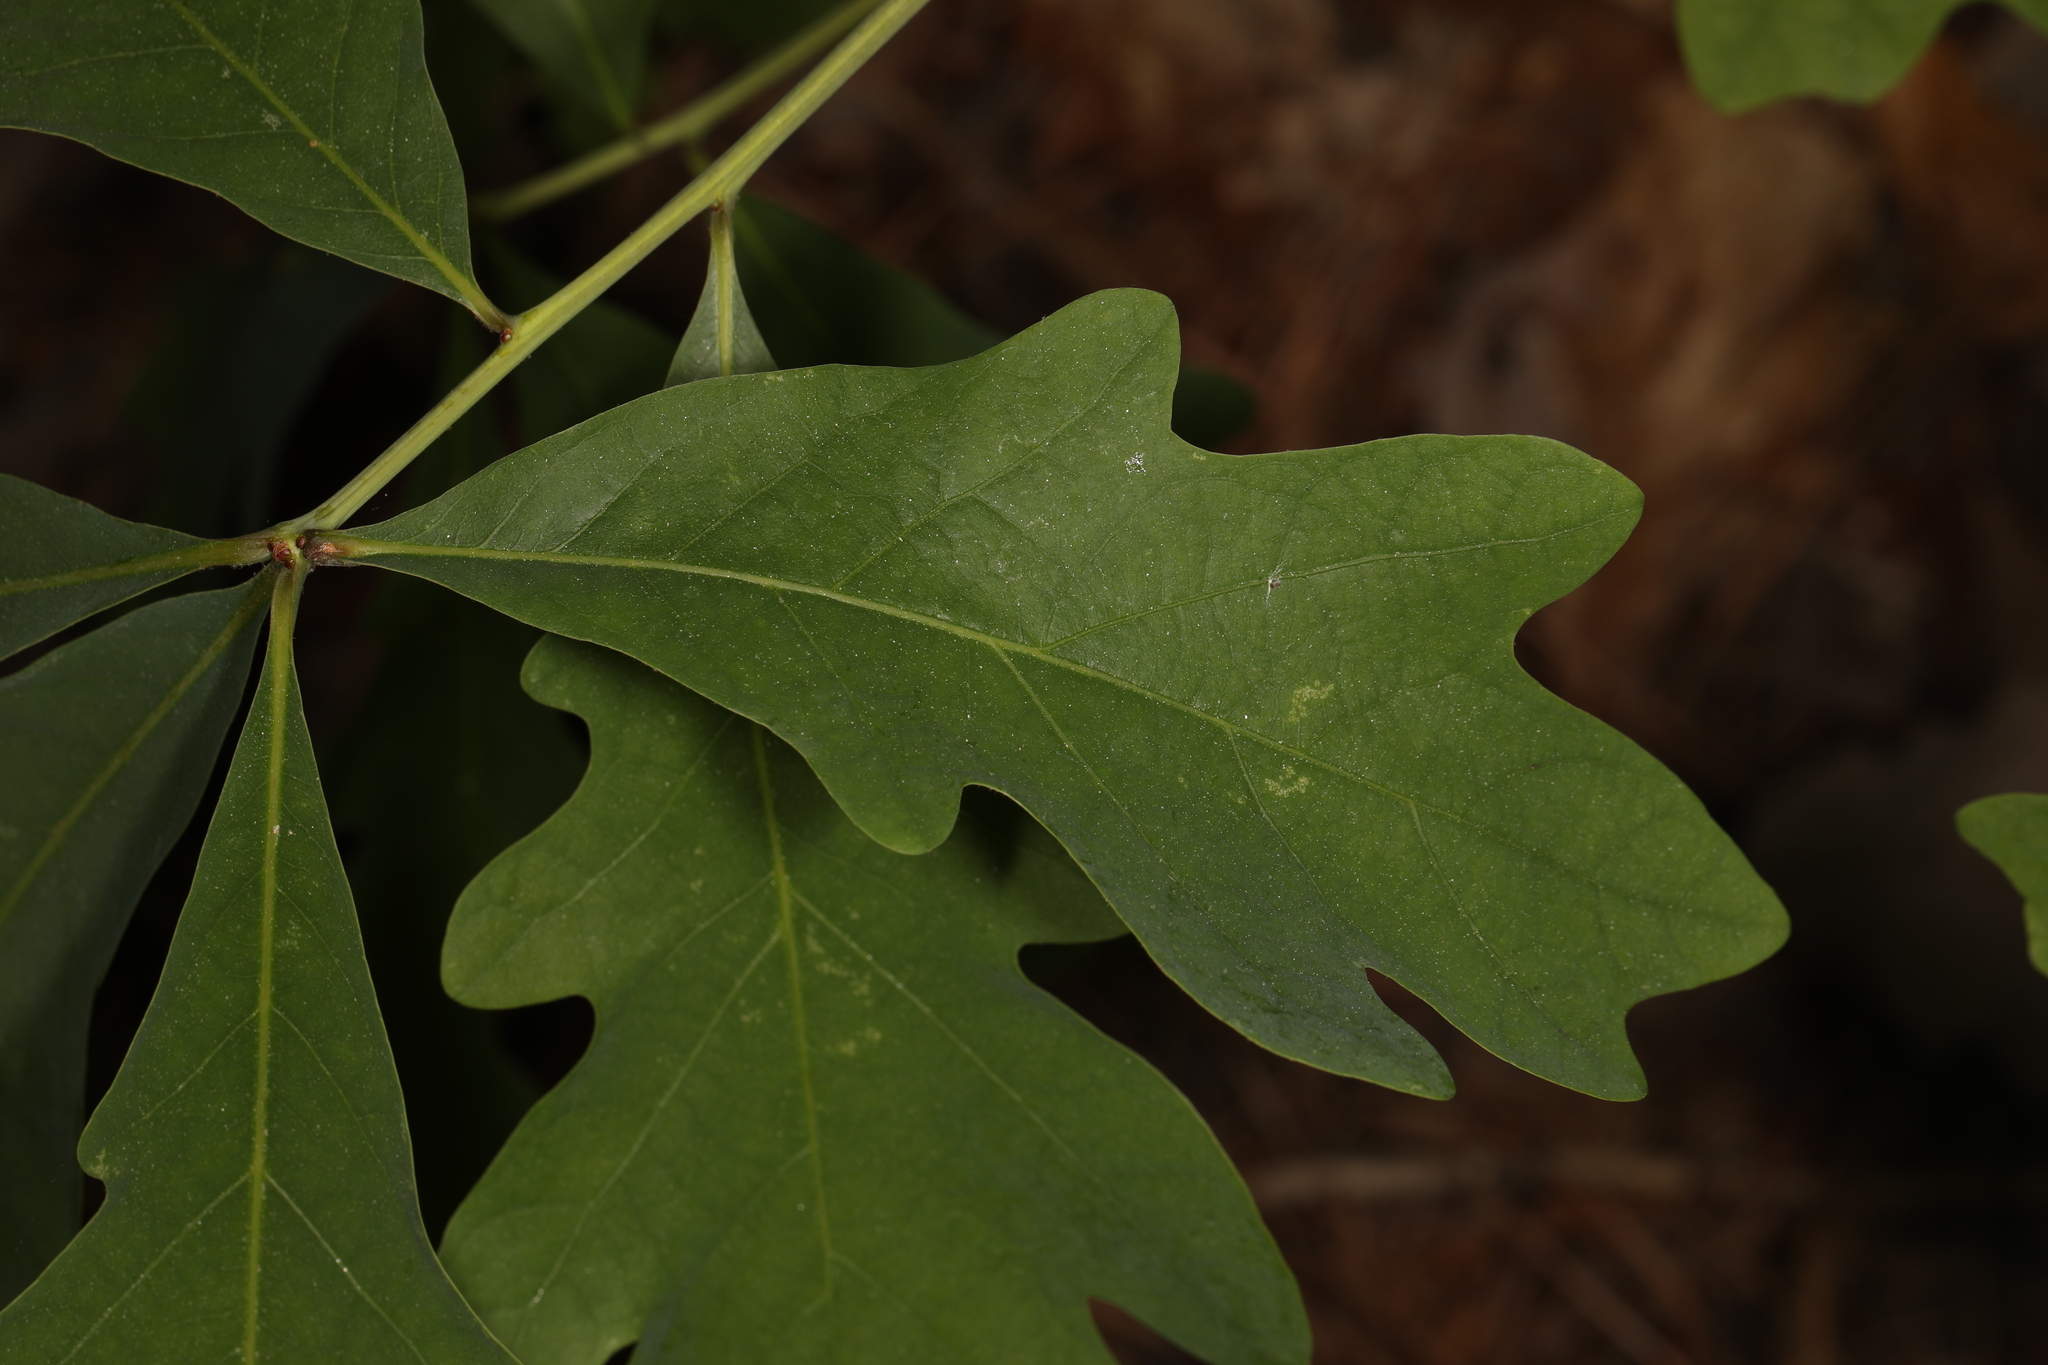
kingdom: Plantae
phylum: Tracheophyta
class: Magnoliopsida
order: Fagales
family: Fagaceae
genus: Quercus
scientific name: Quercus alba
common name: White oak
